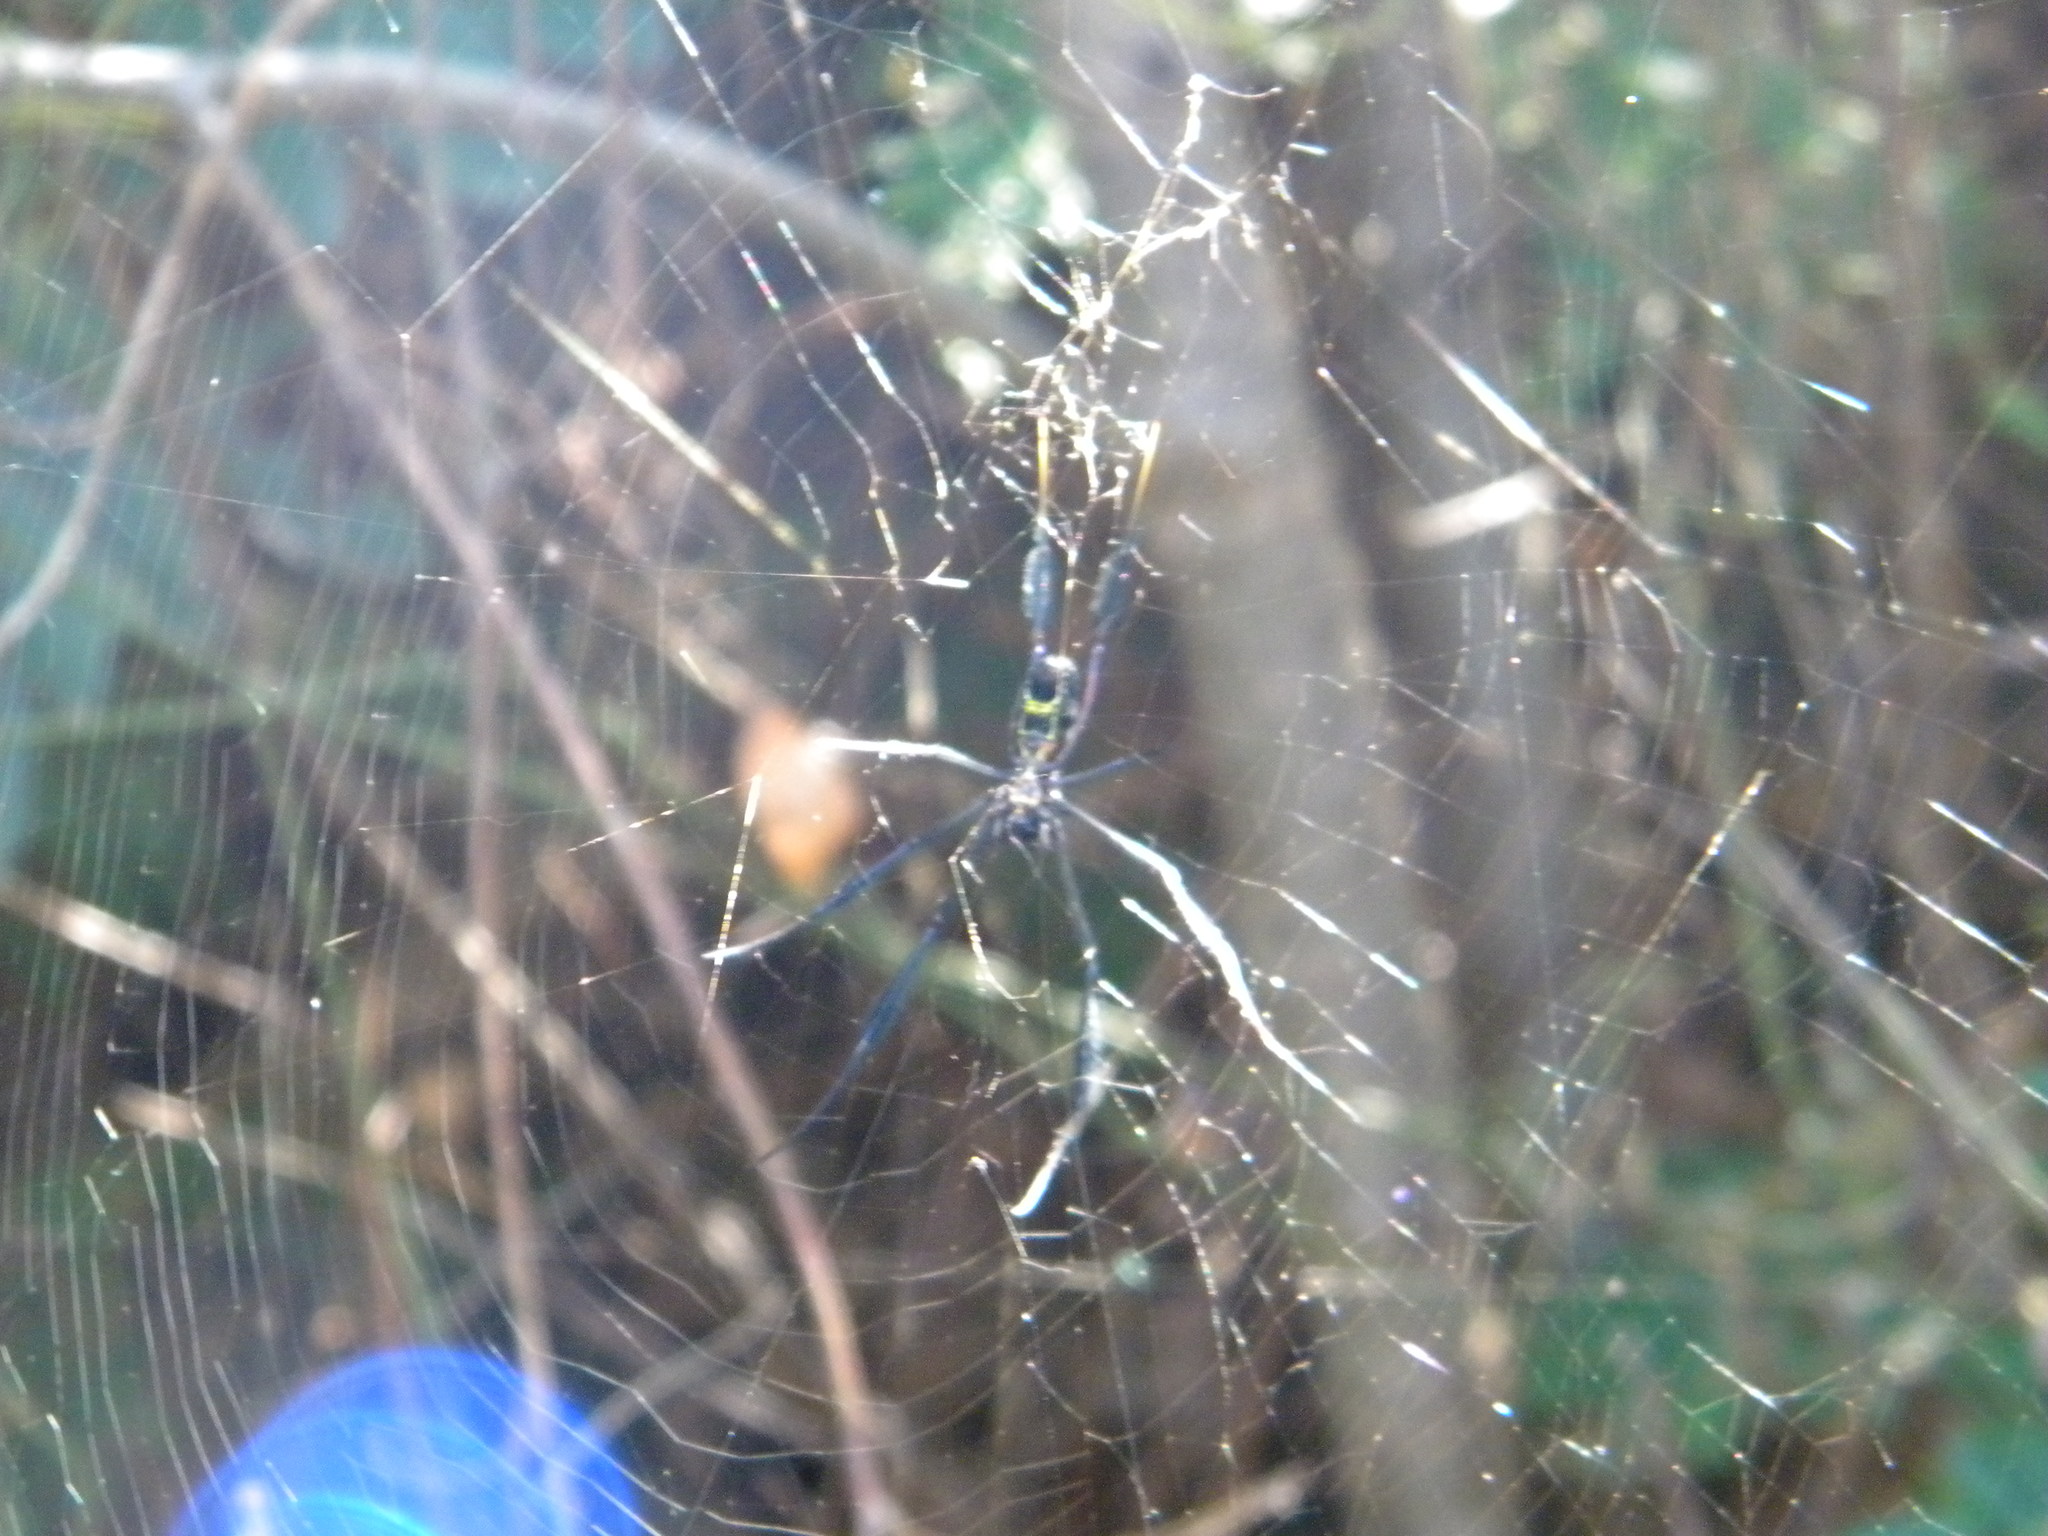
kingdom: Animalia
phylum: Arthropoda
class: Arachnida
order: Araneae
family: Araneidae
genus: Trichonephila
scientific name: Trichonephila fenestrata
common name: Hairy golden orb weaver
